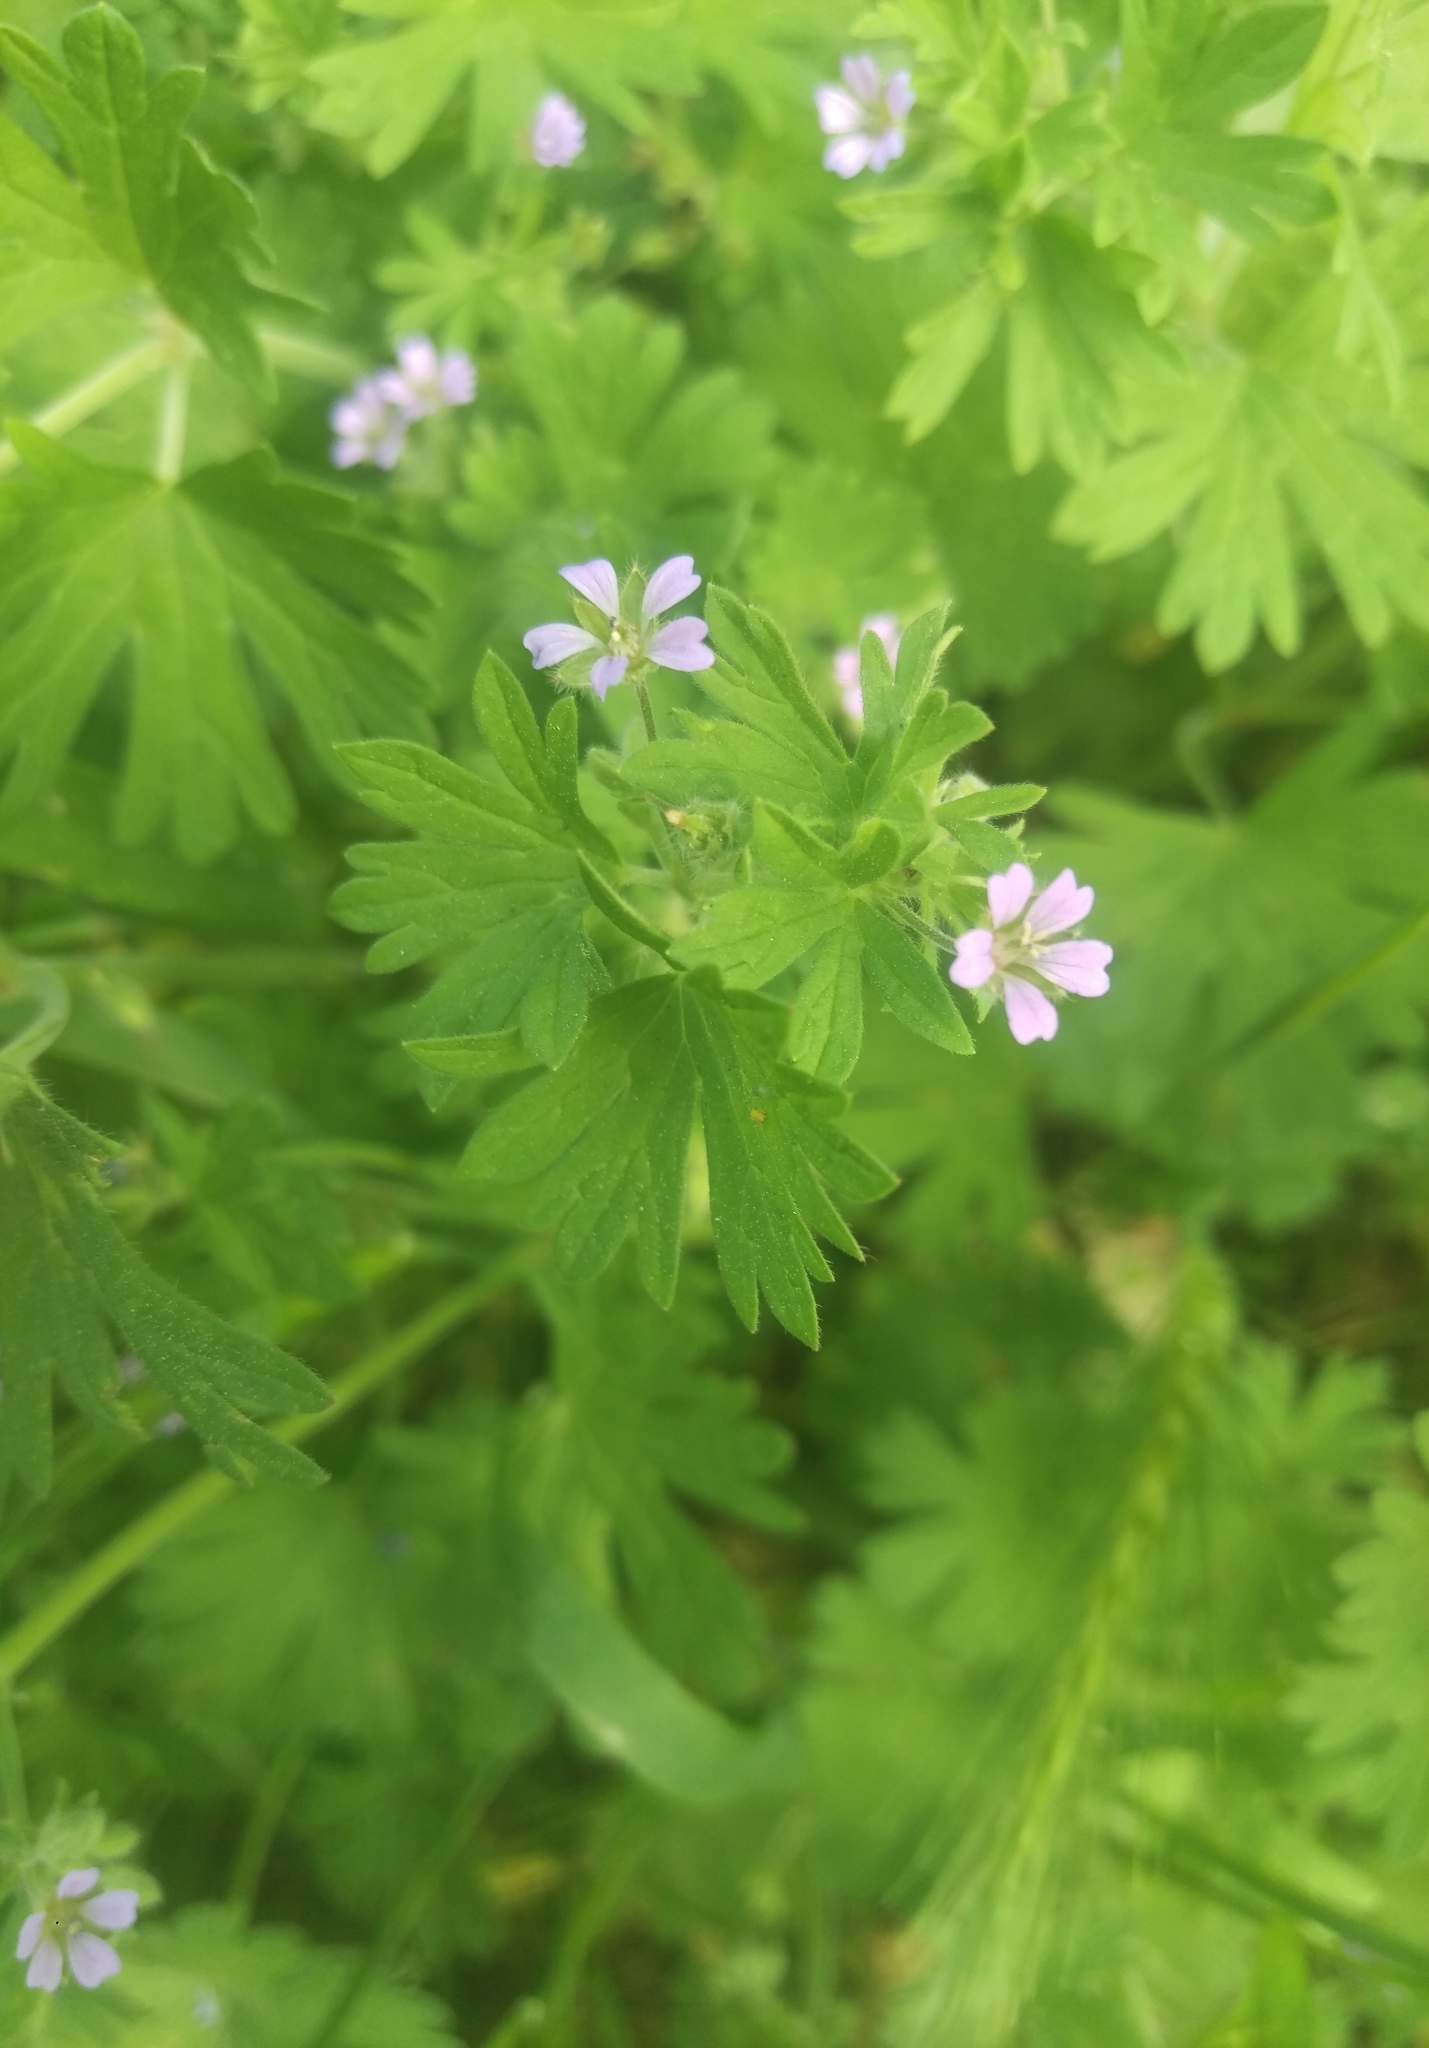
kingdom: Plantae
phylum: Tracheophyta
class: Magnoliopsida
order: Geraniales
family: Geraniaceae
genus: Geranium
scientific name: Geranium pusillum
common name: Small geranium
